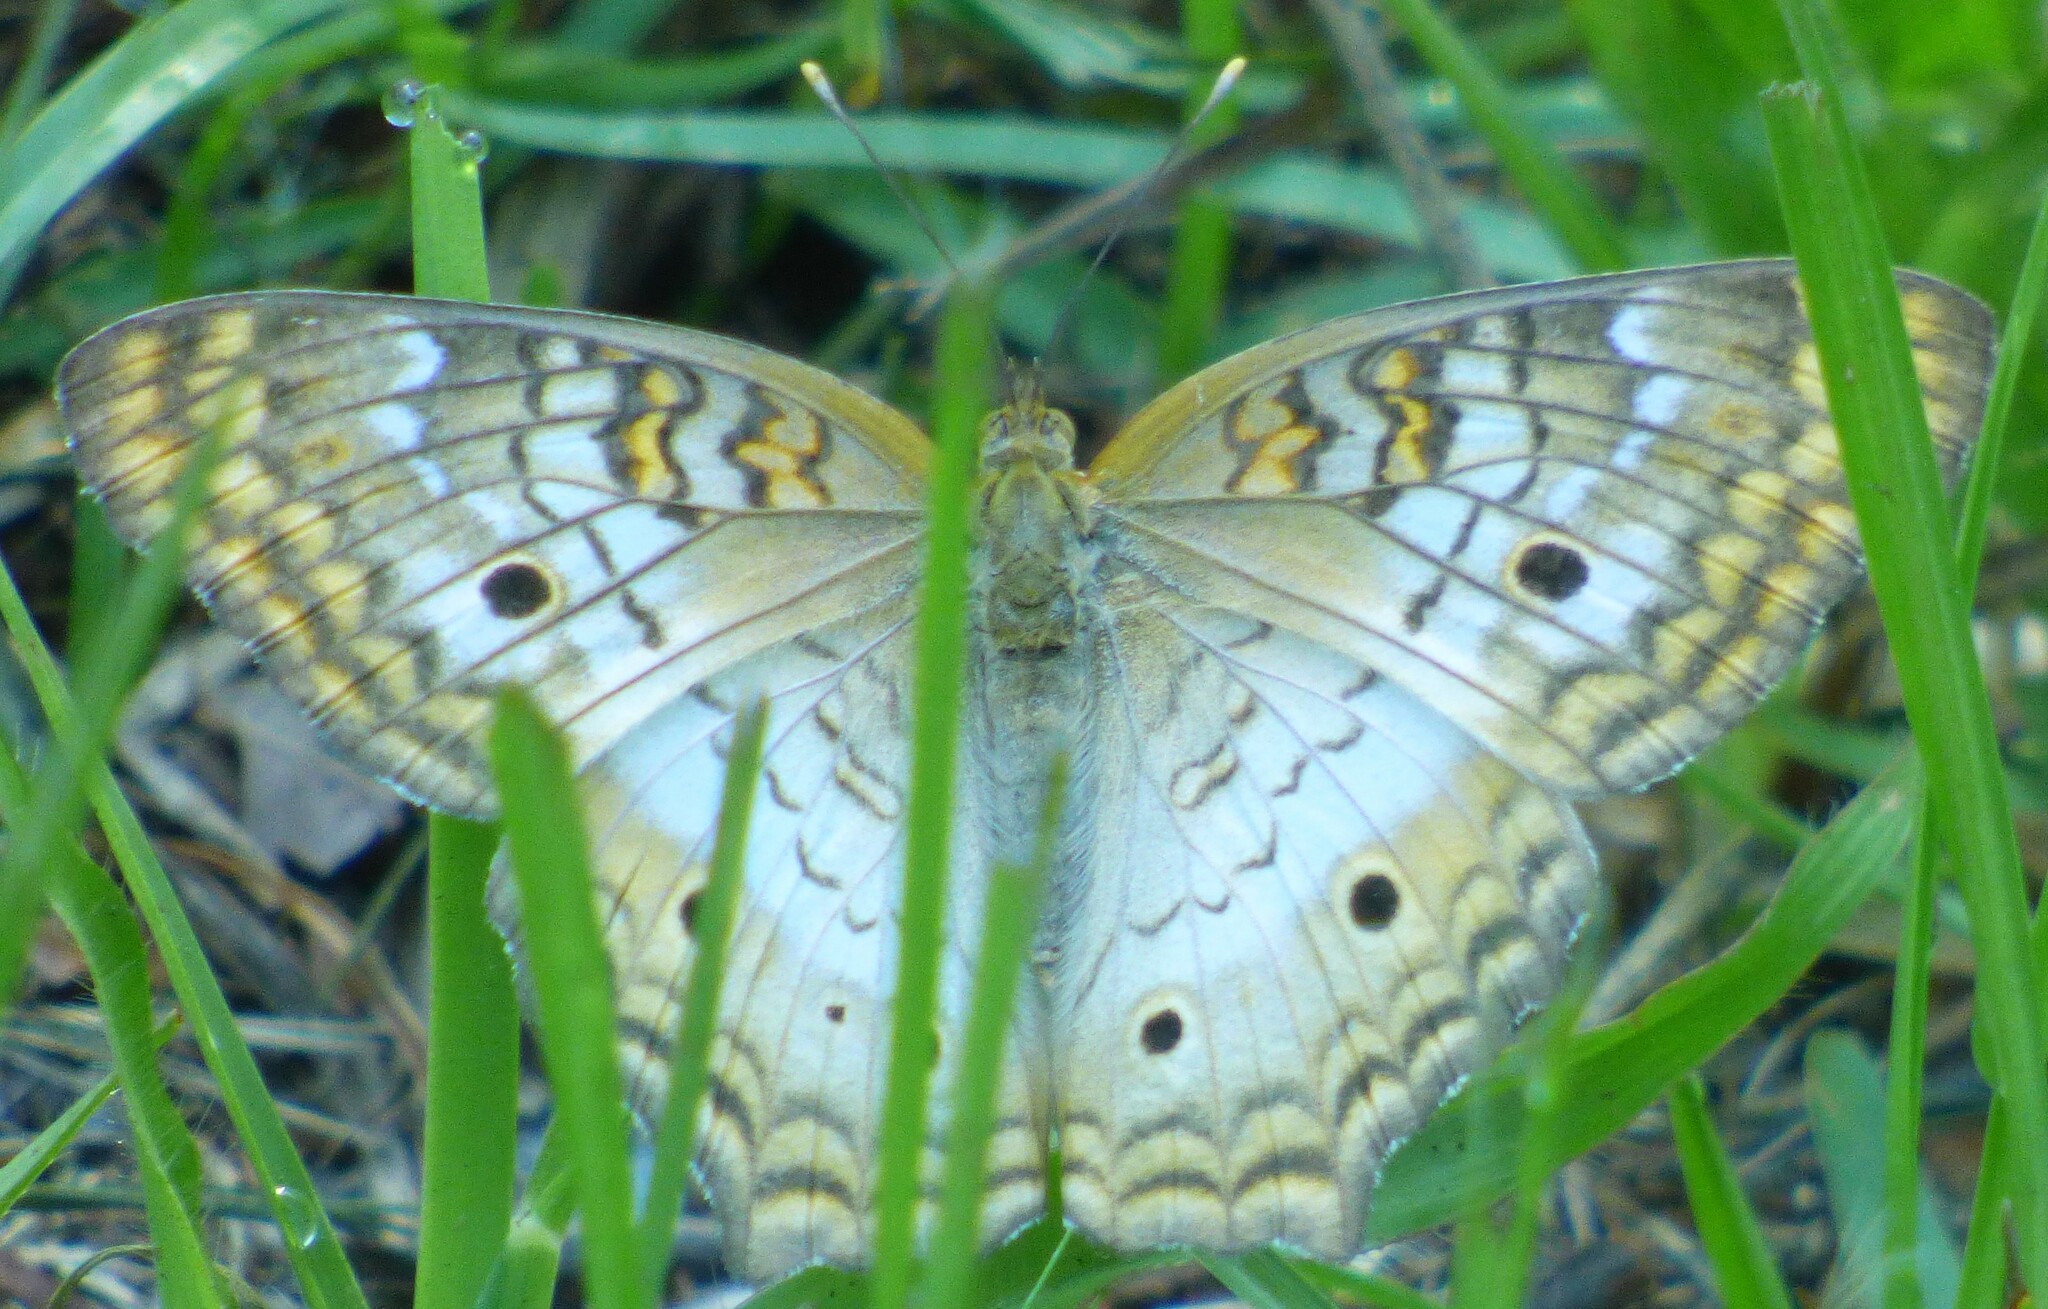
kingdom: Animalia
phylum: Arthropoda
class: Insecta
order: Lepidoptera
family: Nymphalidae
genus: Anartia
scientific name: Anartia jatrophae
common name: White peacock
